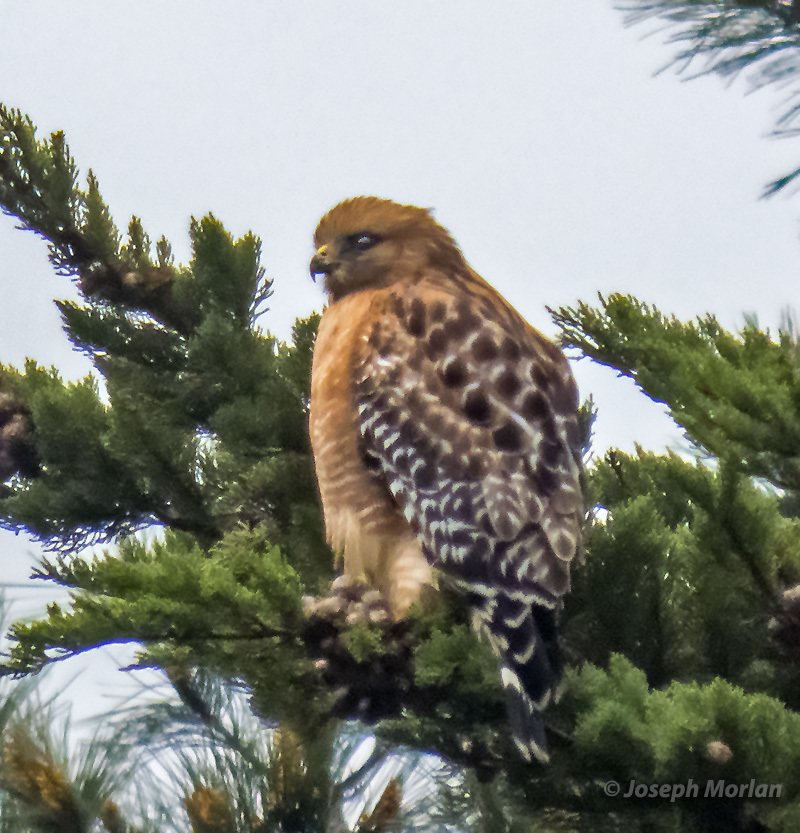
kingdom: Animalia
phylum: Chordata
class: Aves
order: Accipitriformes
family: Accipitridae
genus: Buteo
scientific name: Buteo lineatus
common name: Red-shouldered hawk
